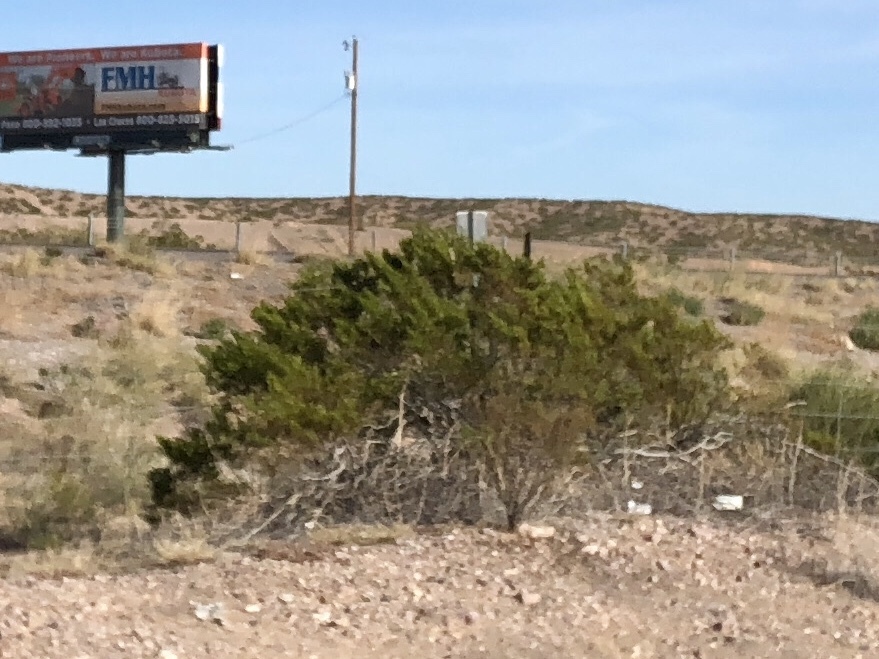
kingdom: Plantae
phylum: Tracheophyta
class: Magnoliopsida
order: Zygophyllales
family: Zygophyllaceae
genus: Larrea
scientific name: Larrea tridentata
